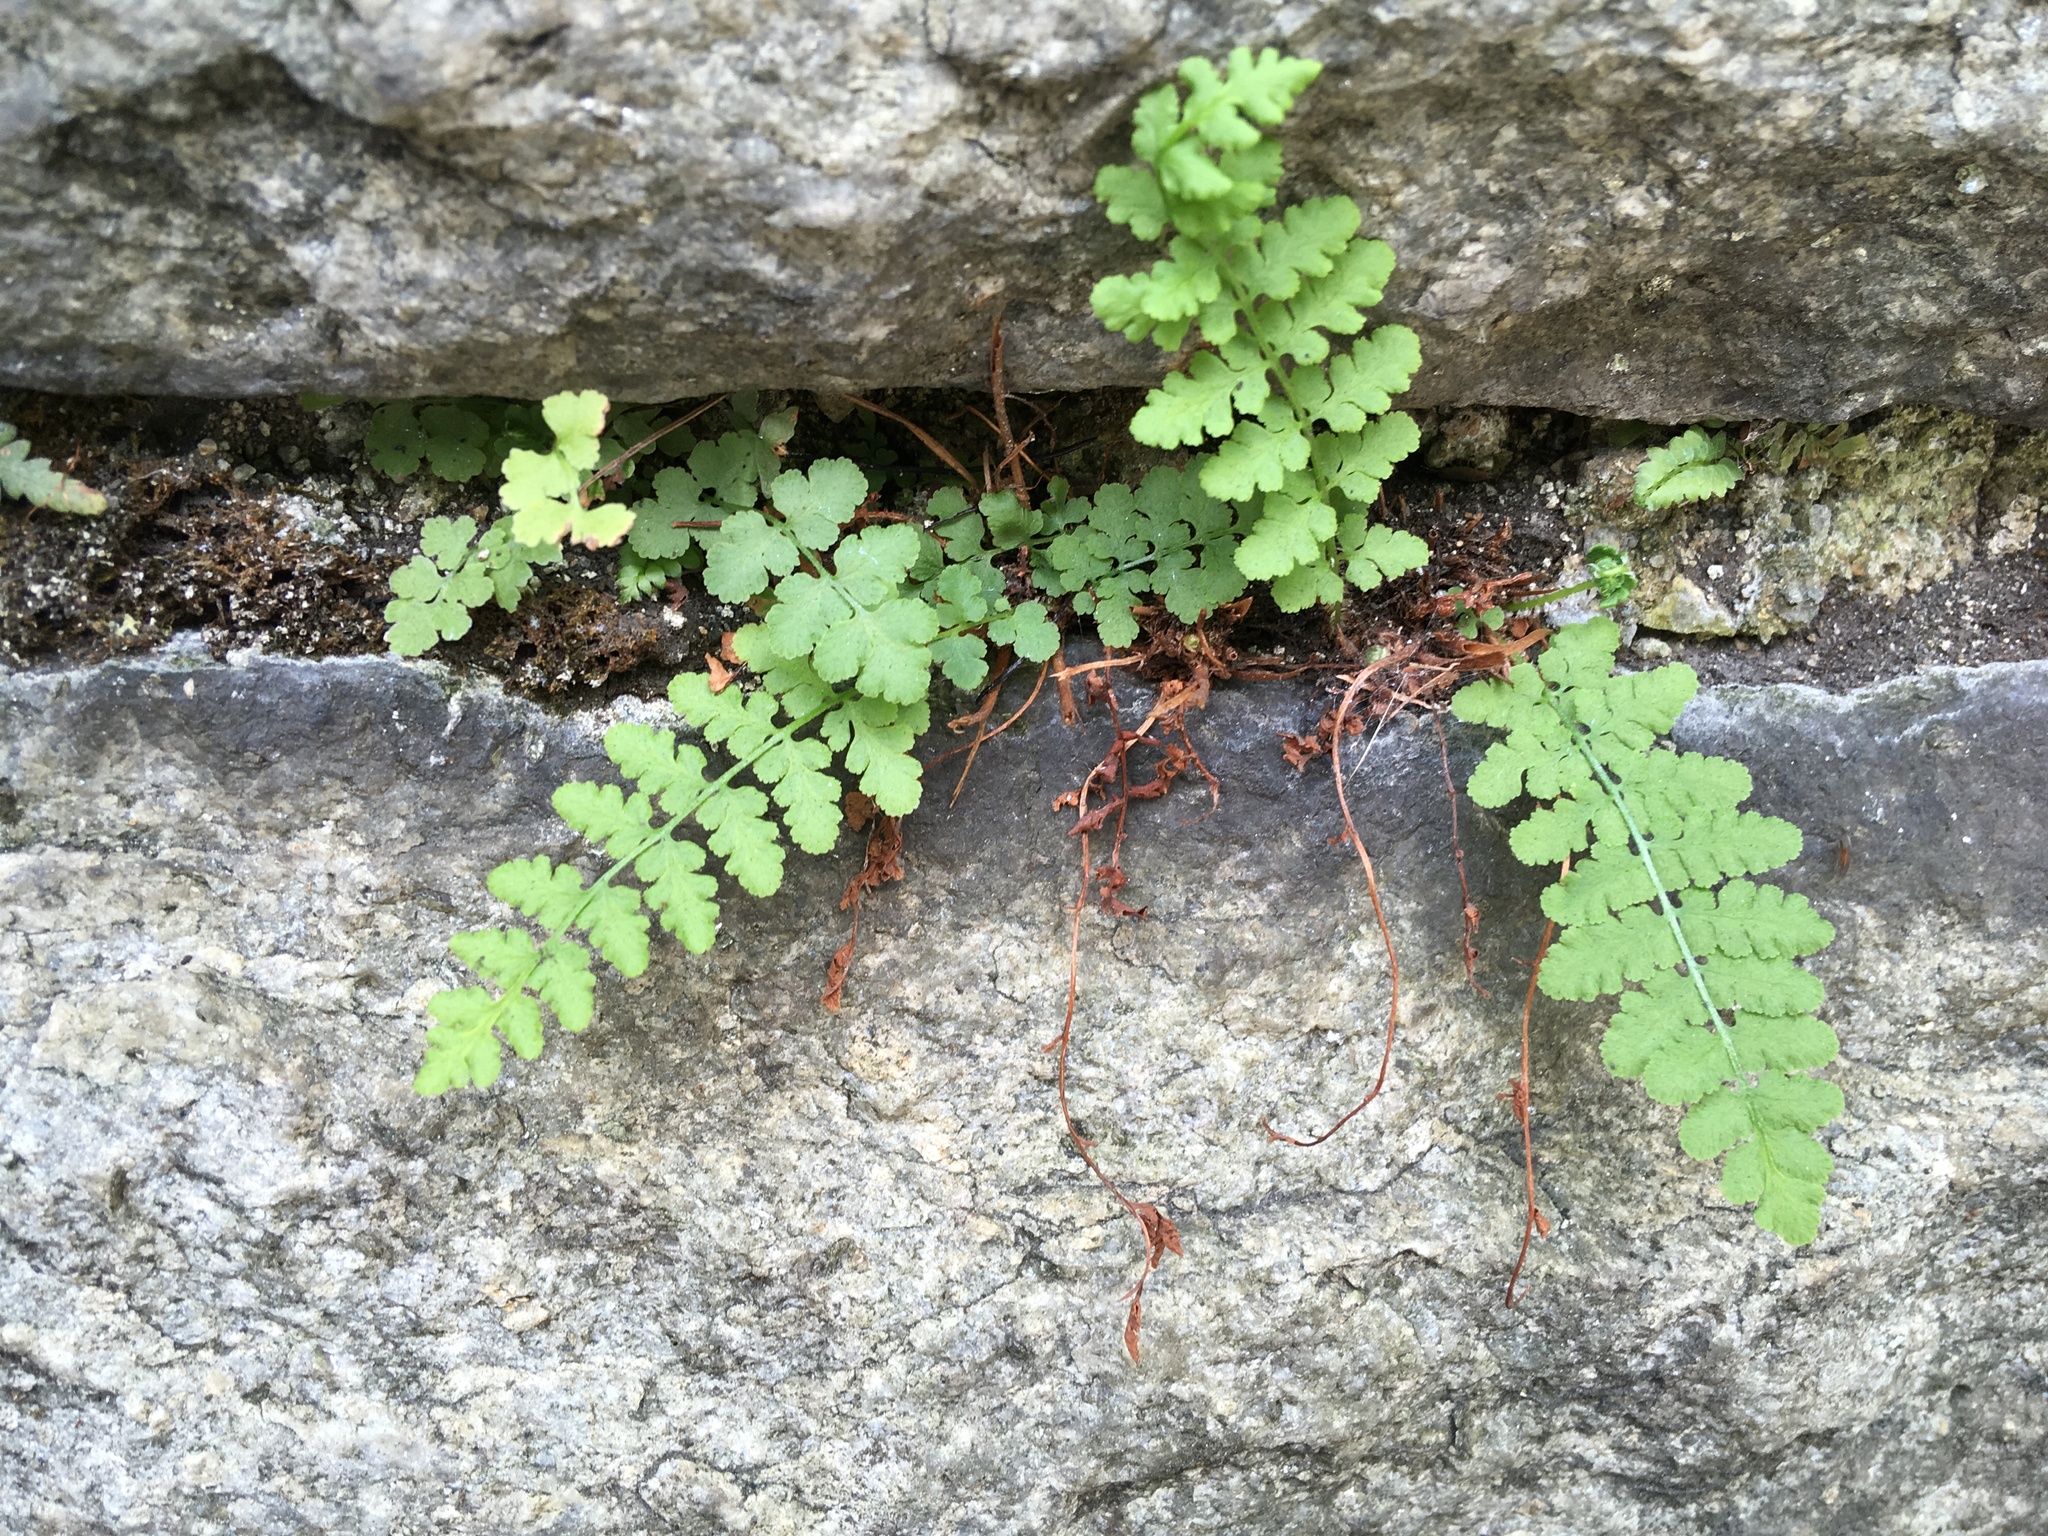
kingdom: Plantae
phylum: Tracheophyta
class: Polypodiopsida
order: Polypodiales
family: Woodsiaceae
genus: Physematium
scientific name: Physematium obtusum
